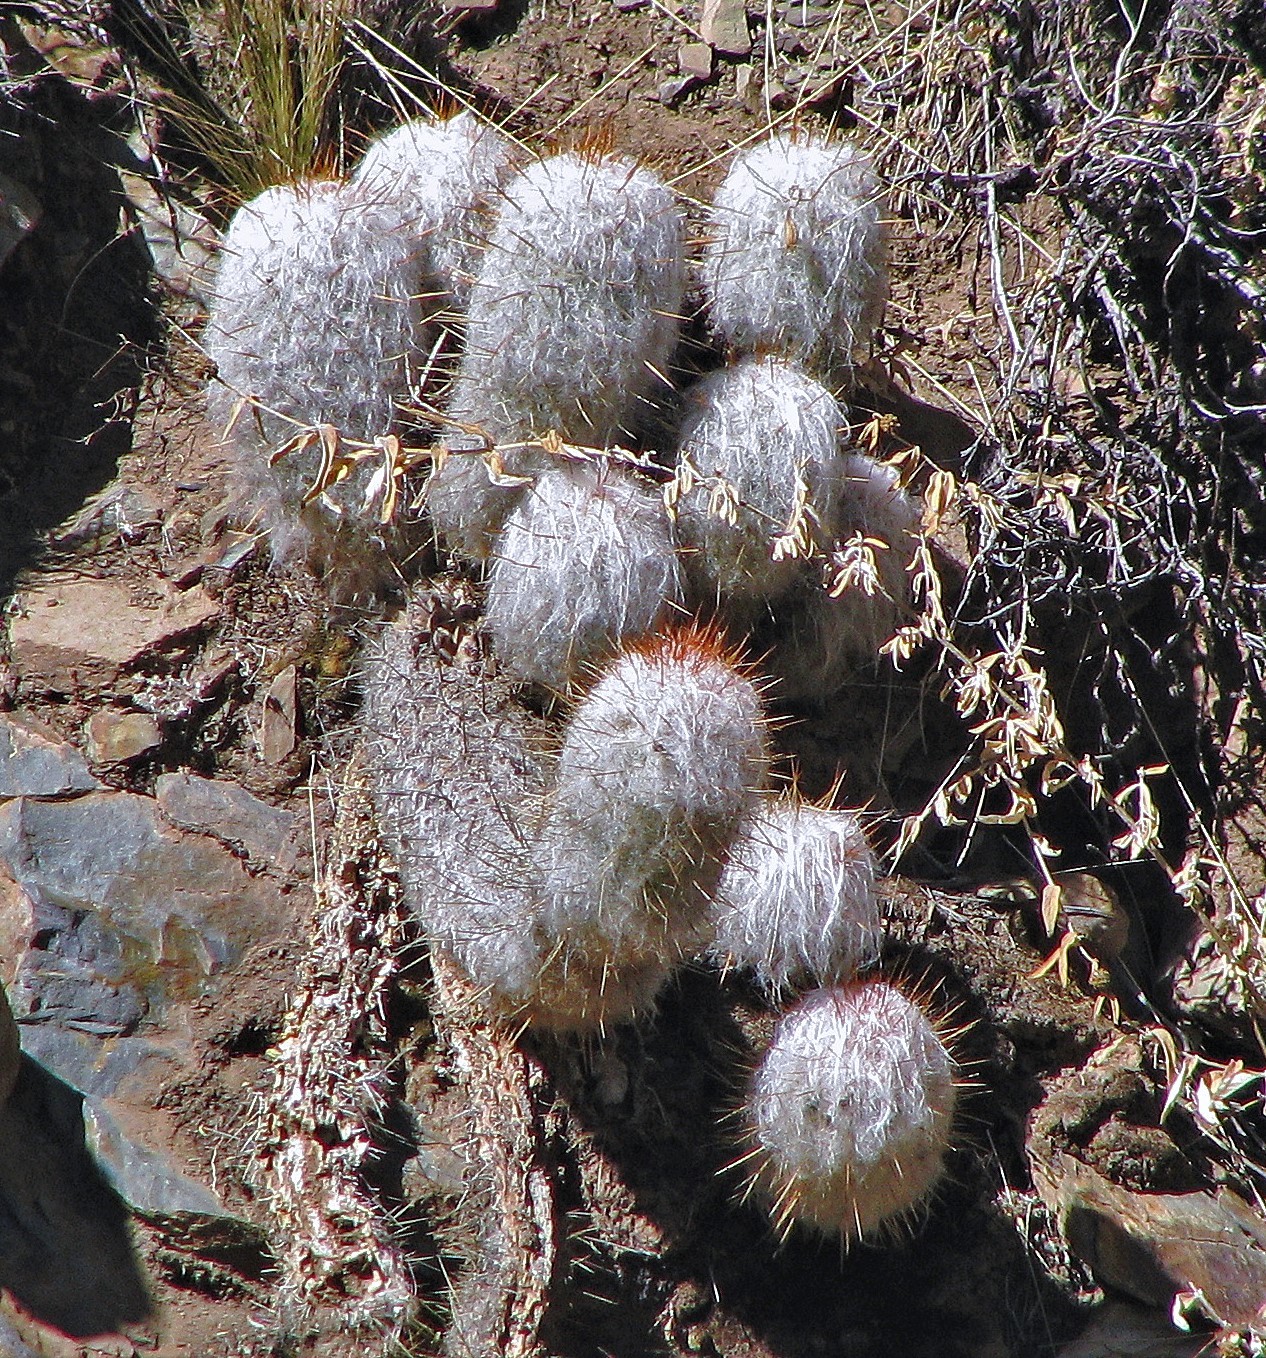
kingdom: Plantae
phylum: Tracheophyta
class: Magnoliopsida
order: Caryophyllales
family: Cactaceae
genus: Oreocereus
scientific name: Oreocereus trollii
